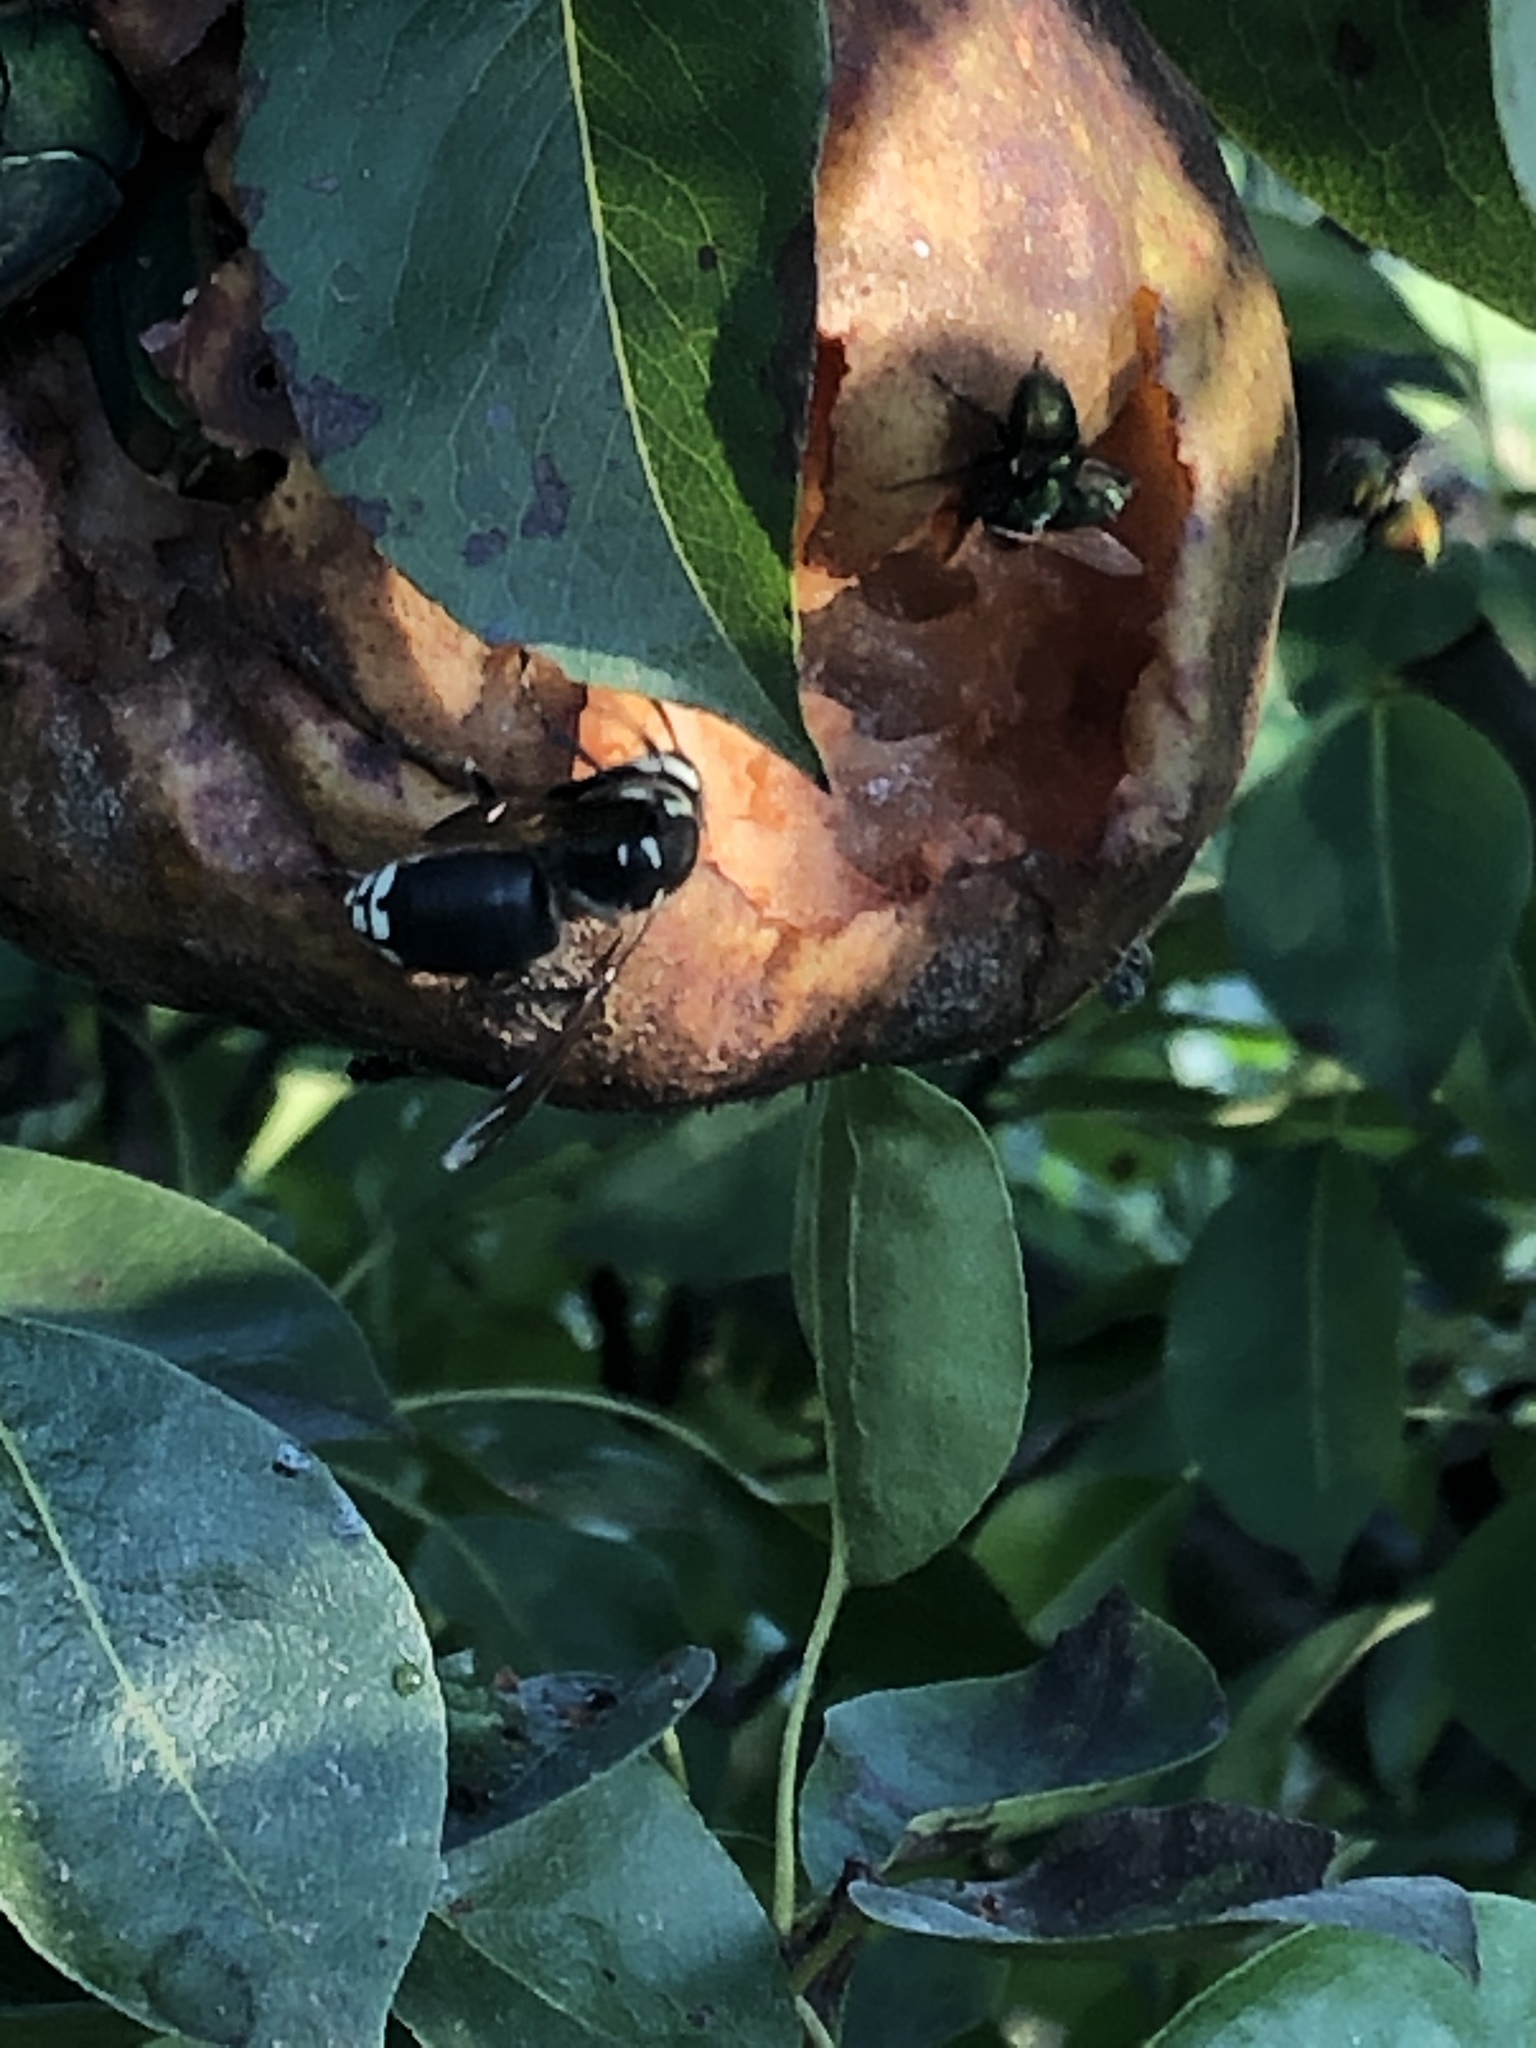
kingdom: Animalia
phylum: Arthropoda
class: Insecta
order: Hymenoptera
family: Vespidae
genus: Dolichovespula
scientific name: Dolichovespula maculata
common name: Bald-faced hornet
